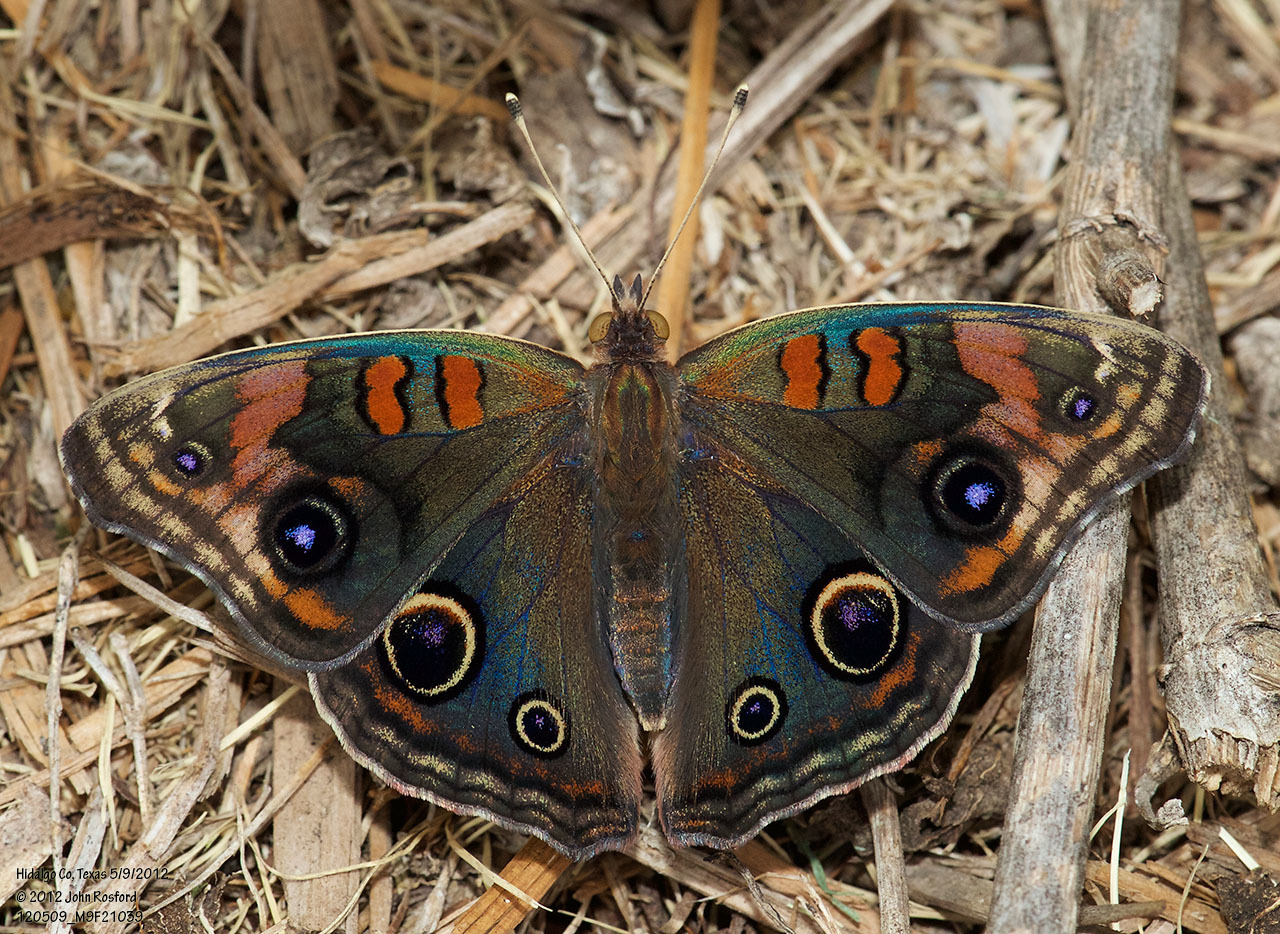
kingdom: Animalia
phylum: Arthropoda
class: Insecta
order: Lepidoptera
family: Nymphalidae
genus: Junonia
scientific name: Junonia stemosa
